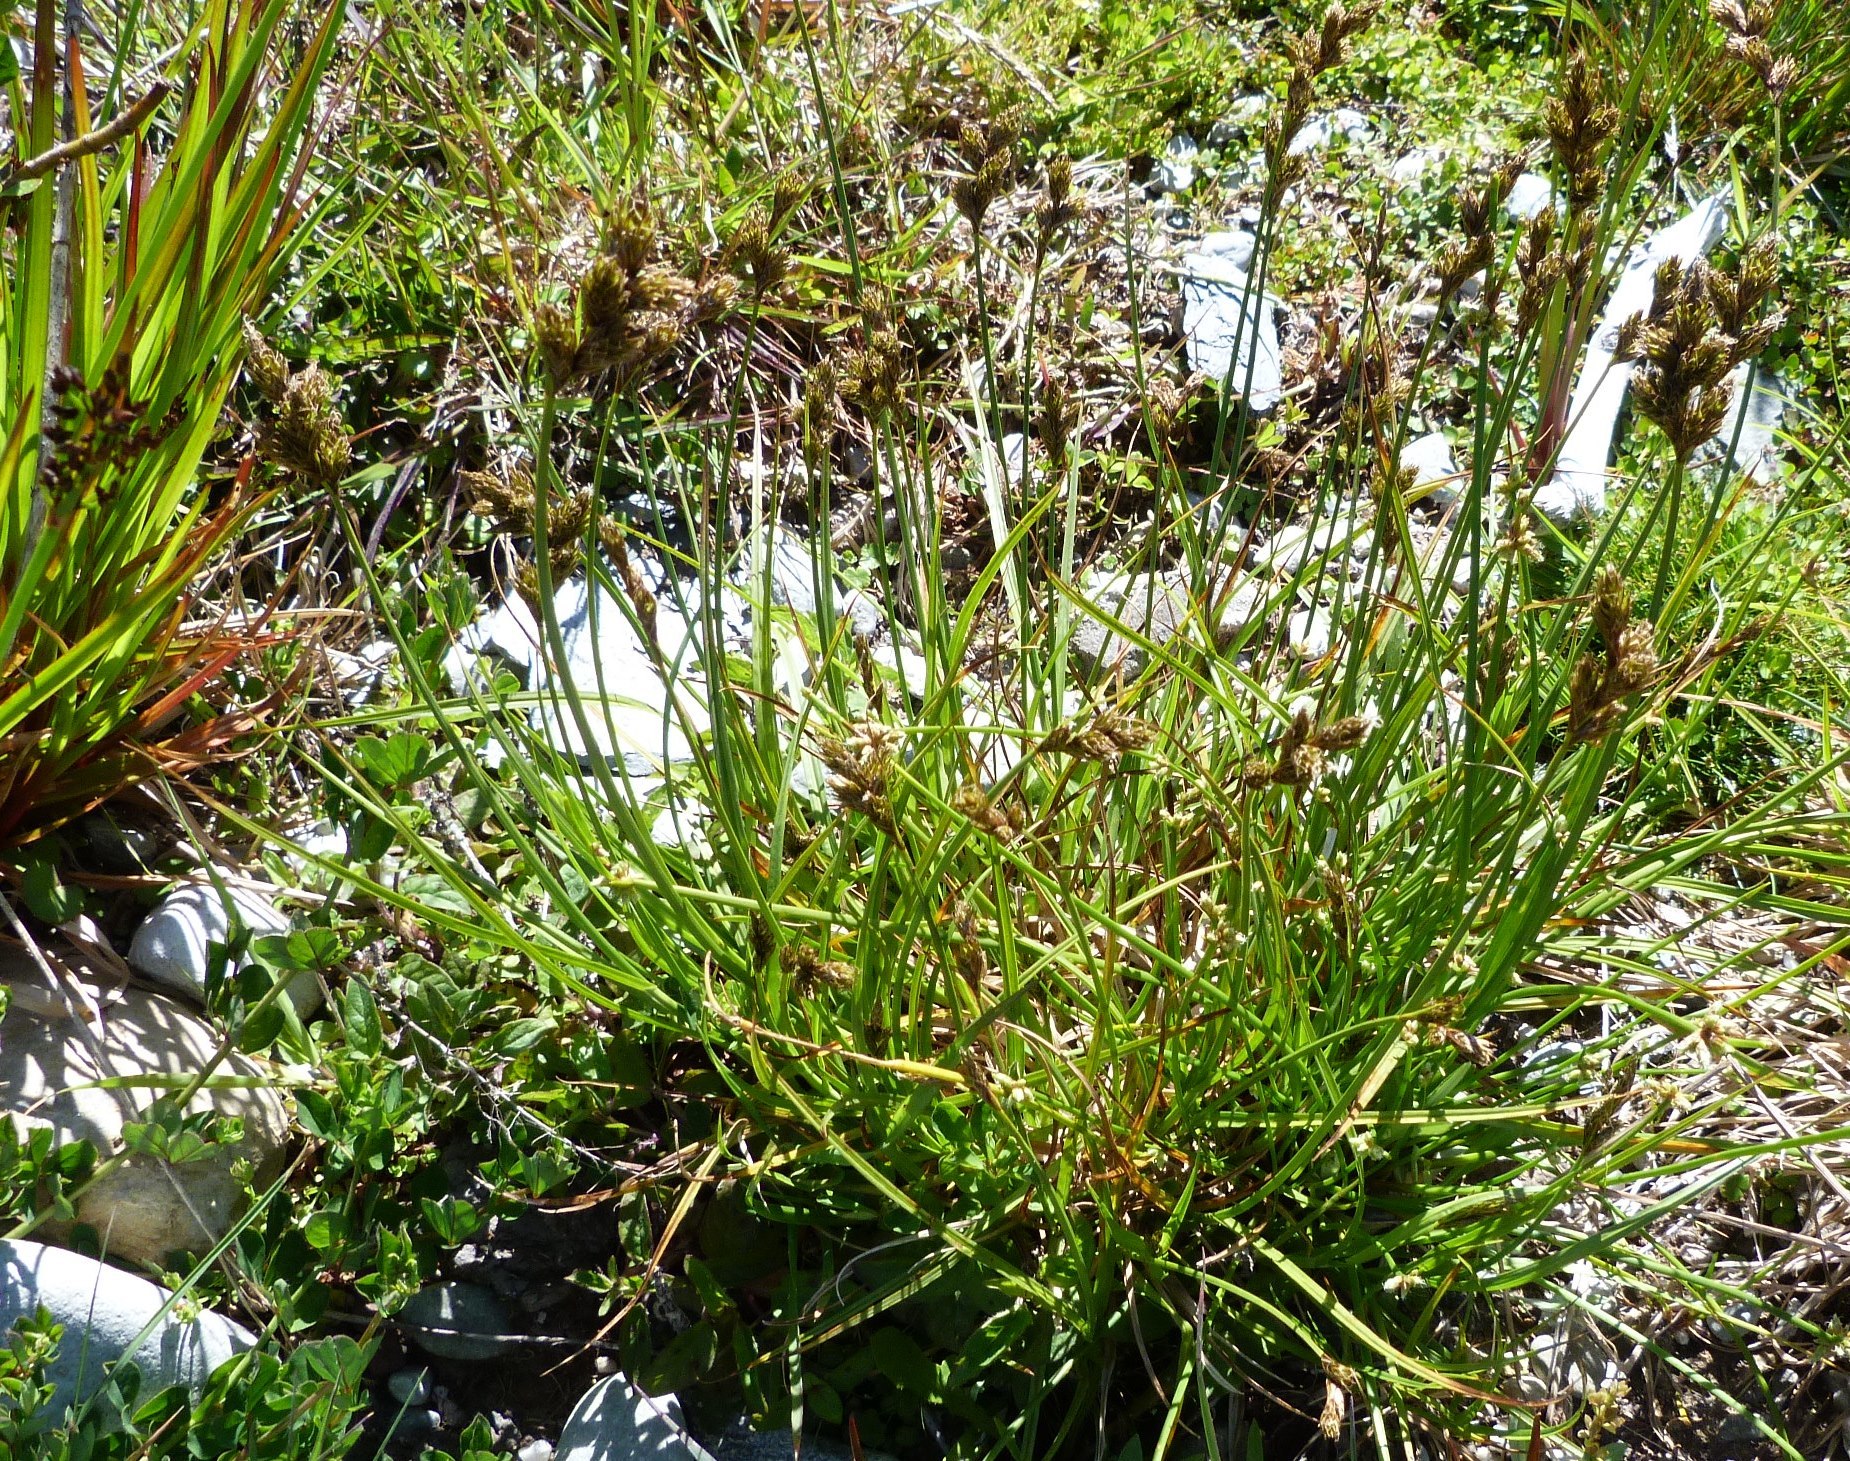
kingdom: Plantae
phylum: Tracheophyta
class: Liliopsida
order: Poales
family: Cyperaceae
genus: Carex
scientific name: Carex leporina
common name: Oval sedge
